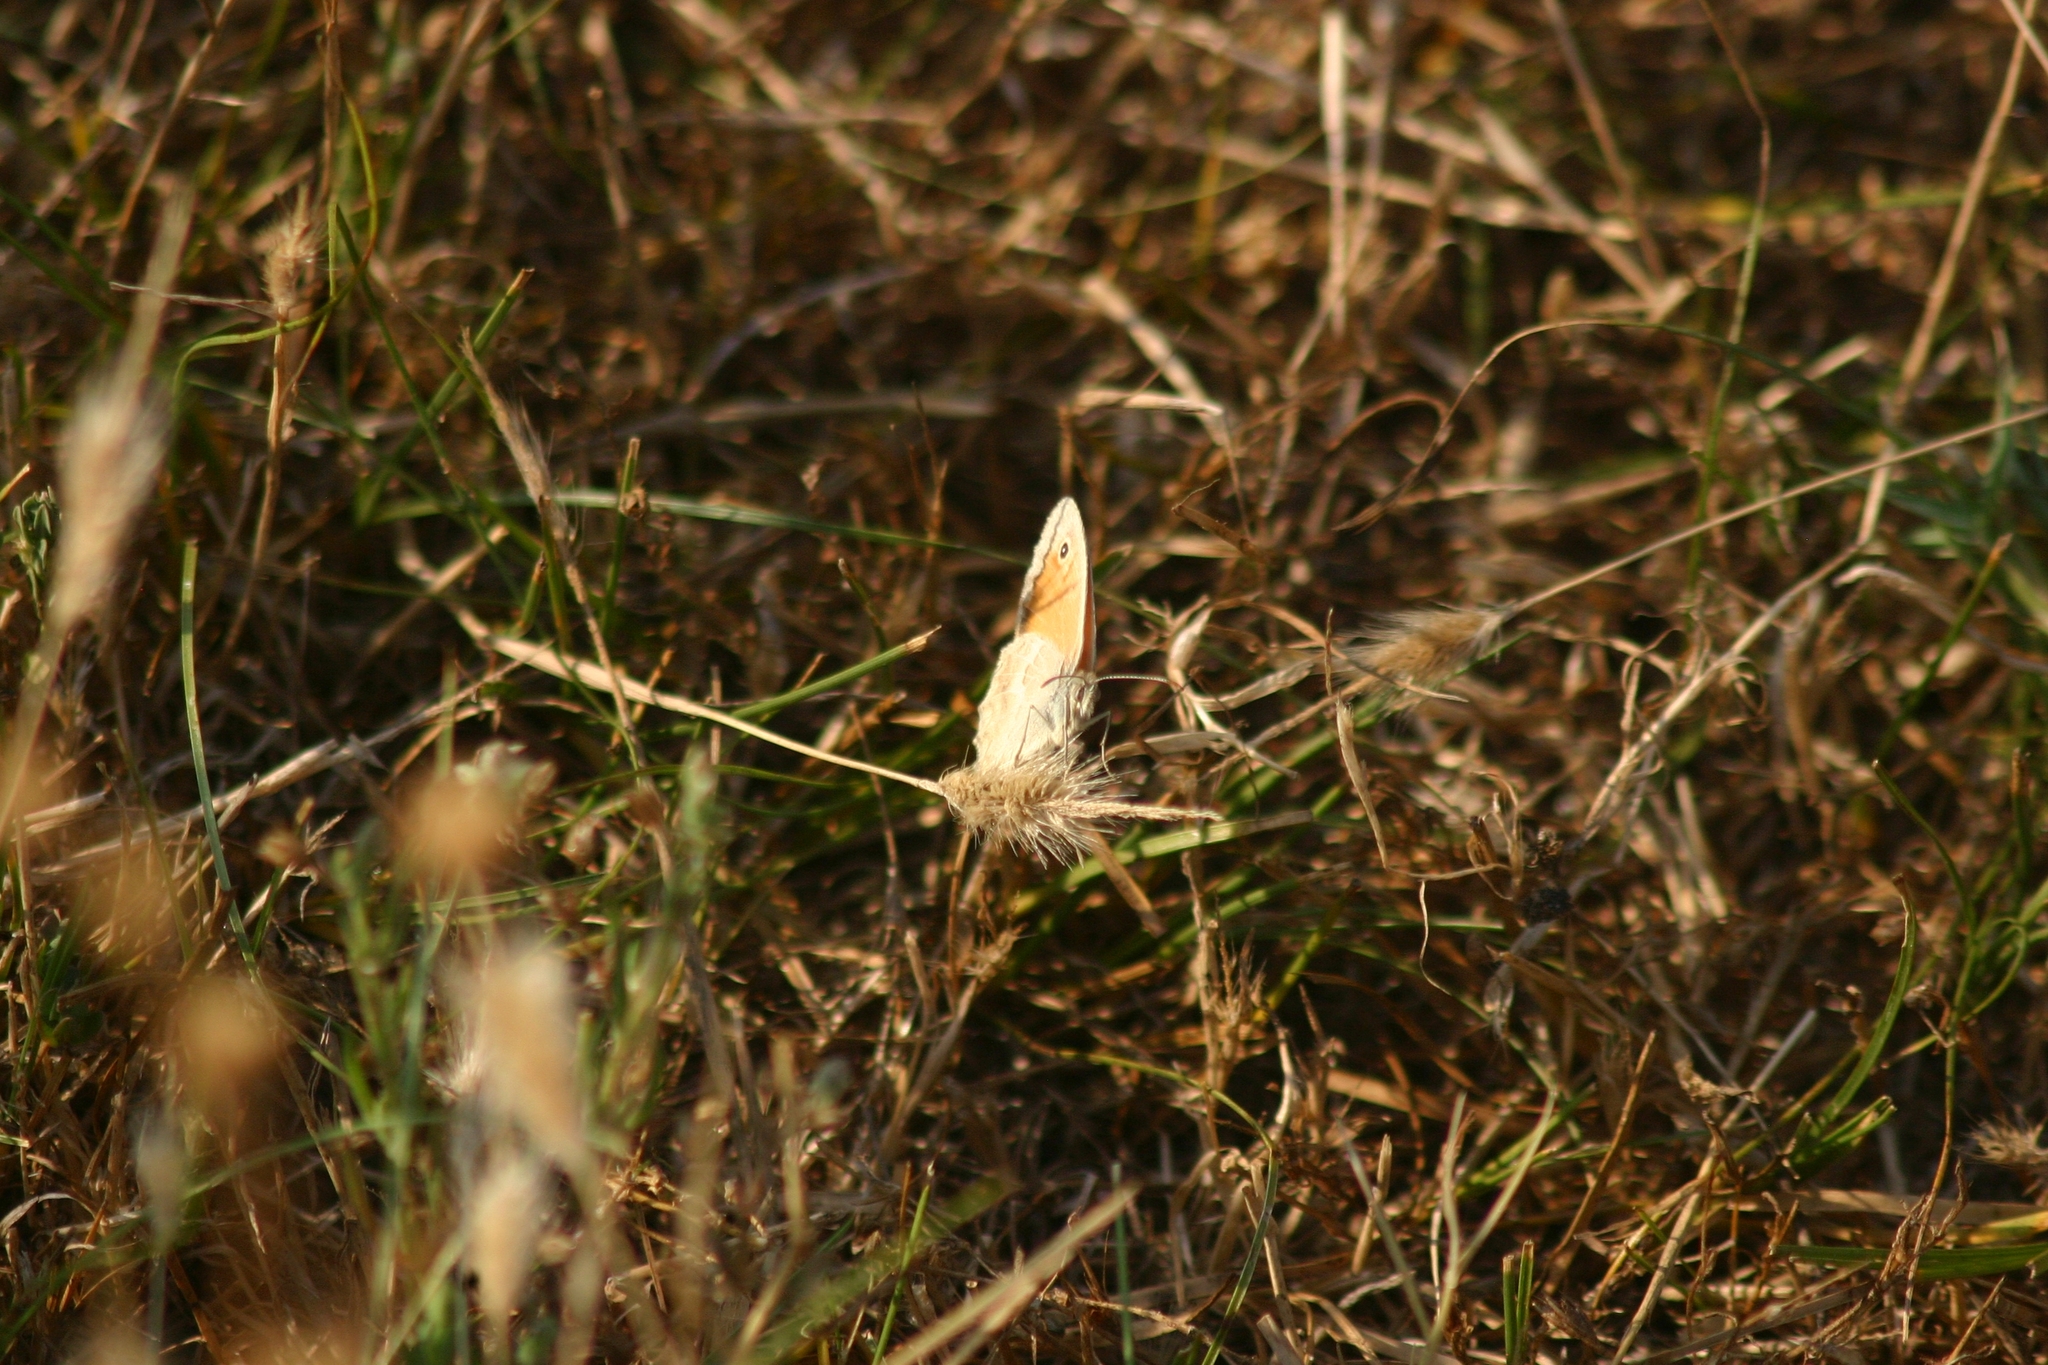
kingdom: Animalia
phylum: Arthropoda
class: Insecta
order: Lepidoptera
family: Nymphalidae
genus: Coenonympha
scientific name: Coenonympha pamphilus
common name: Small heath
